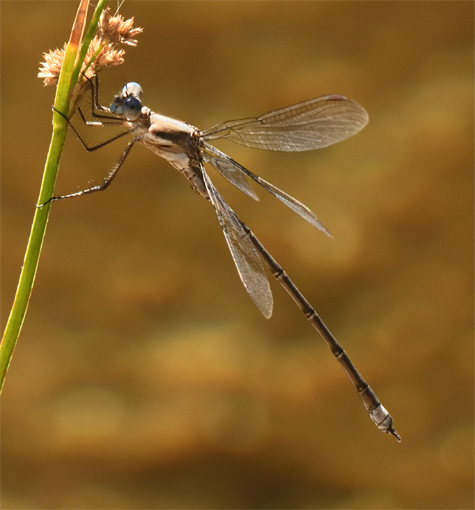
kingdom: Animalia
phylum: Arthropoda
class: Insecta
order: Odonata
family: Lestidae
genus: Archilestes
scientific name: Archilestes californicus
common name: California spreadwing
